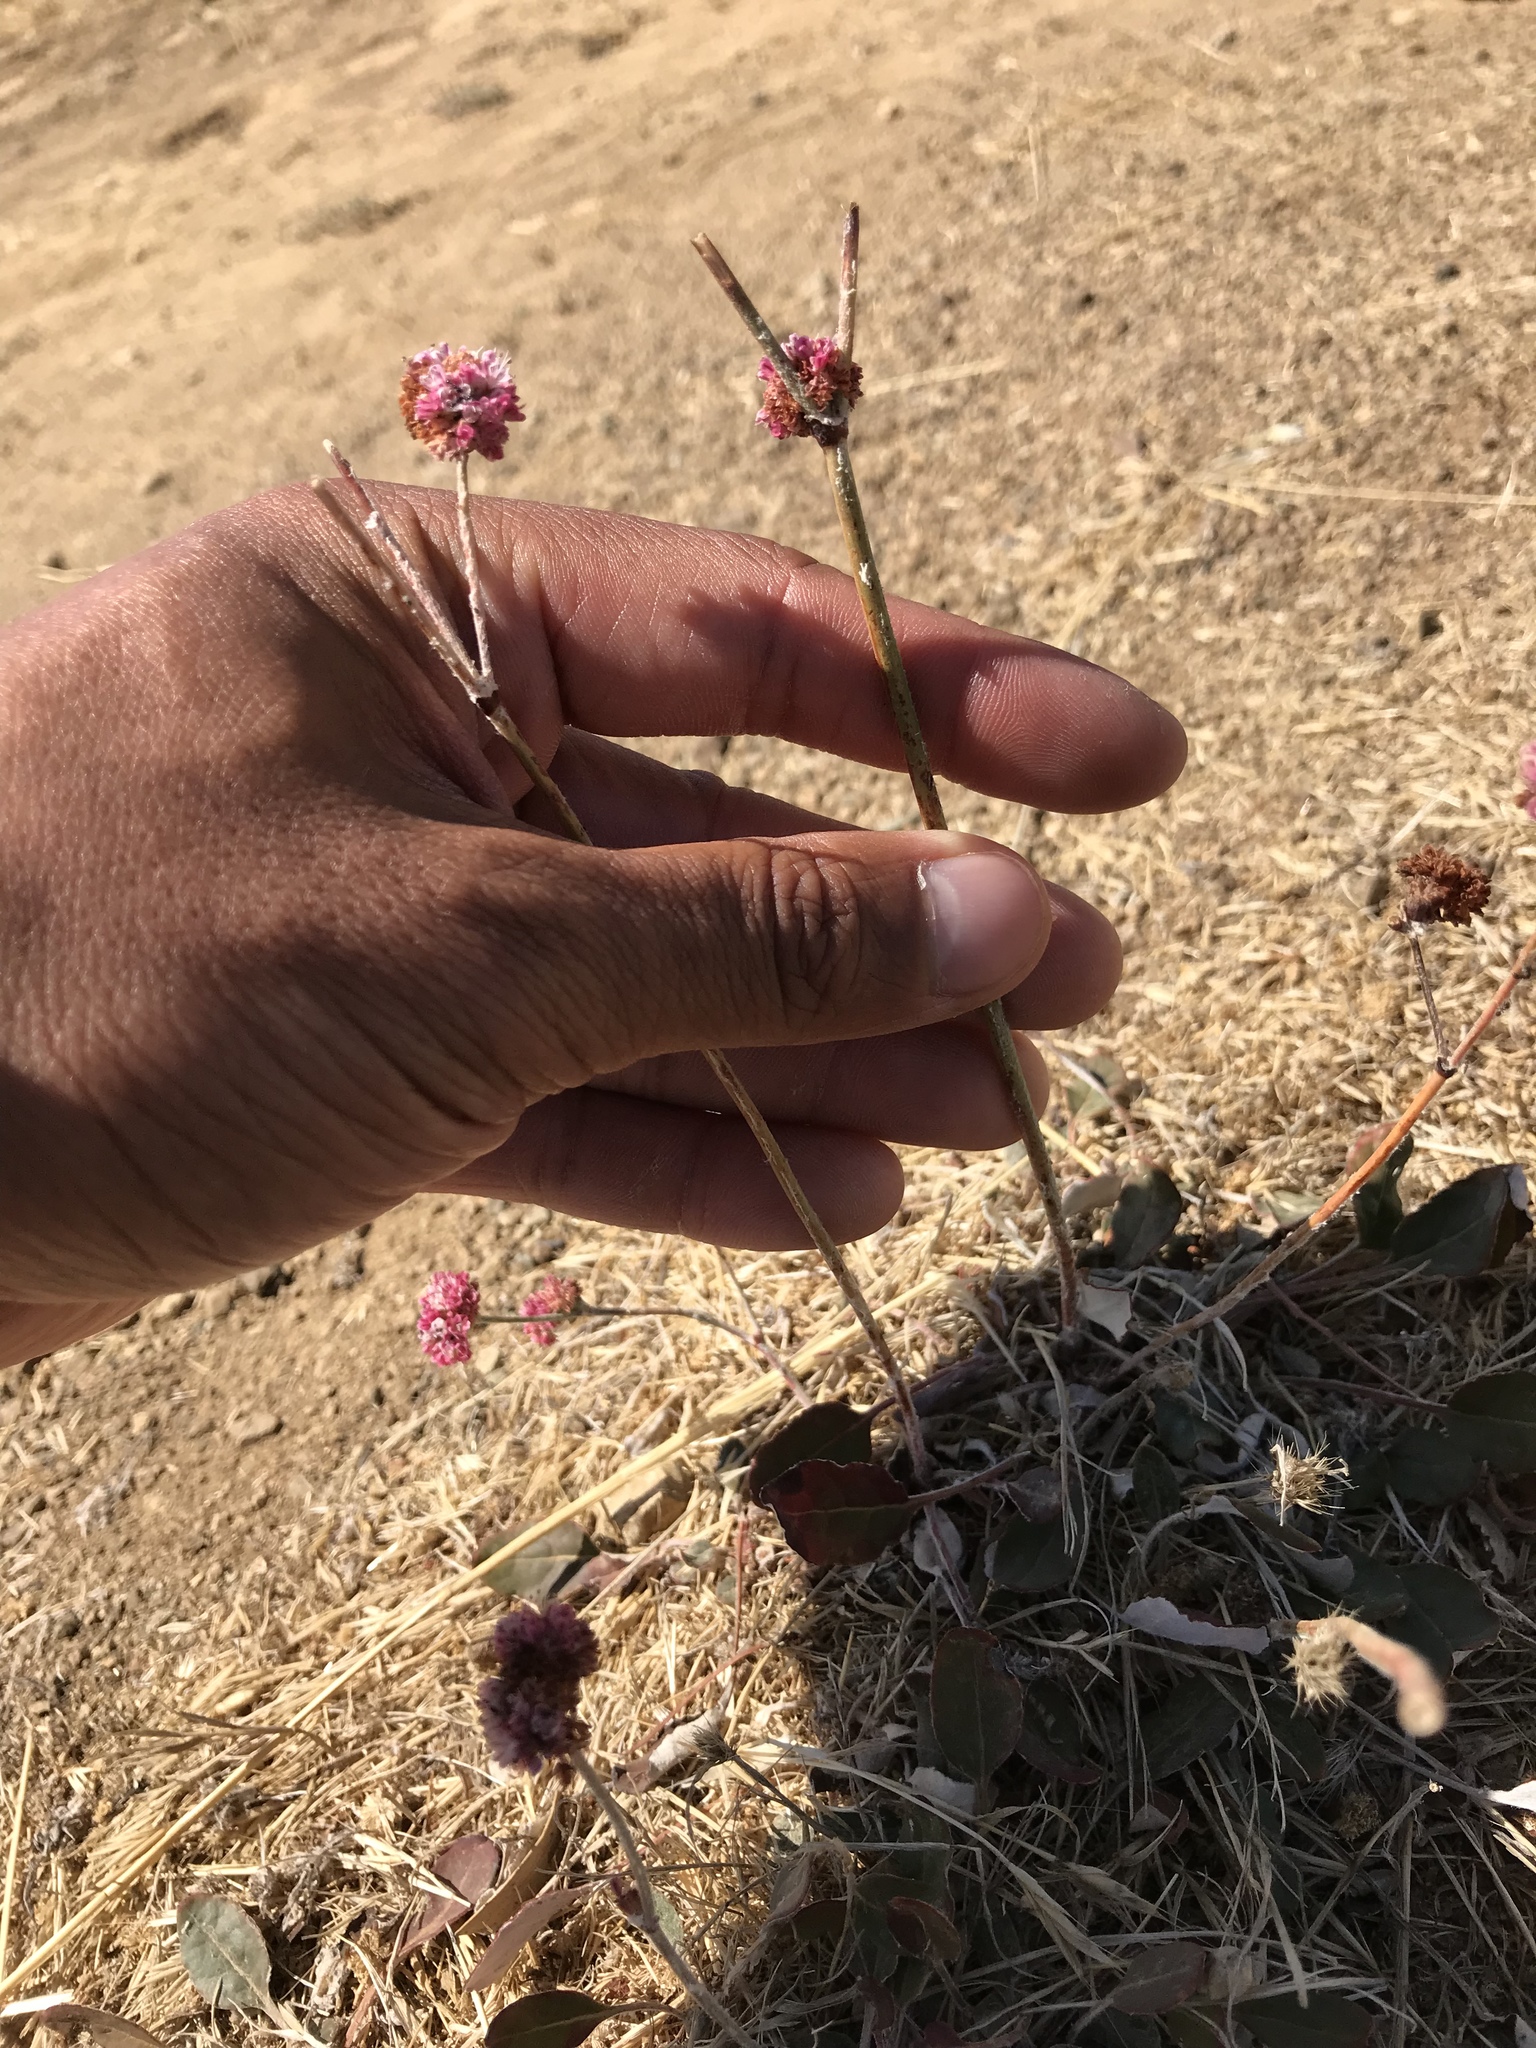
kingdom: Plantae
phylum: Tracheophyta
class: Magnoliopsida
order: Caryophyllales
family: Polygonaceae
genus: Eriogonum
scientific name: Eriogonum nudum
